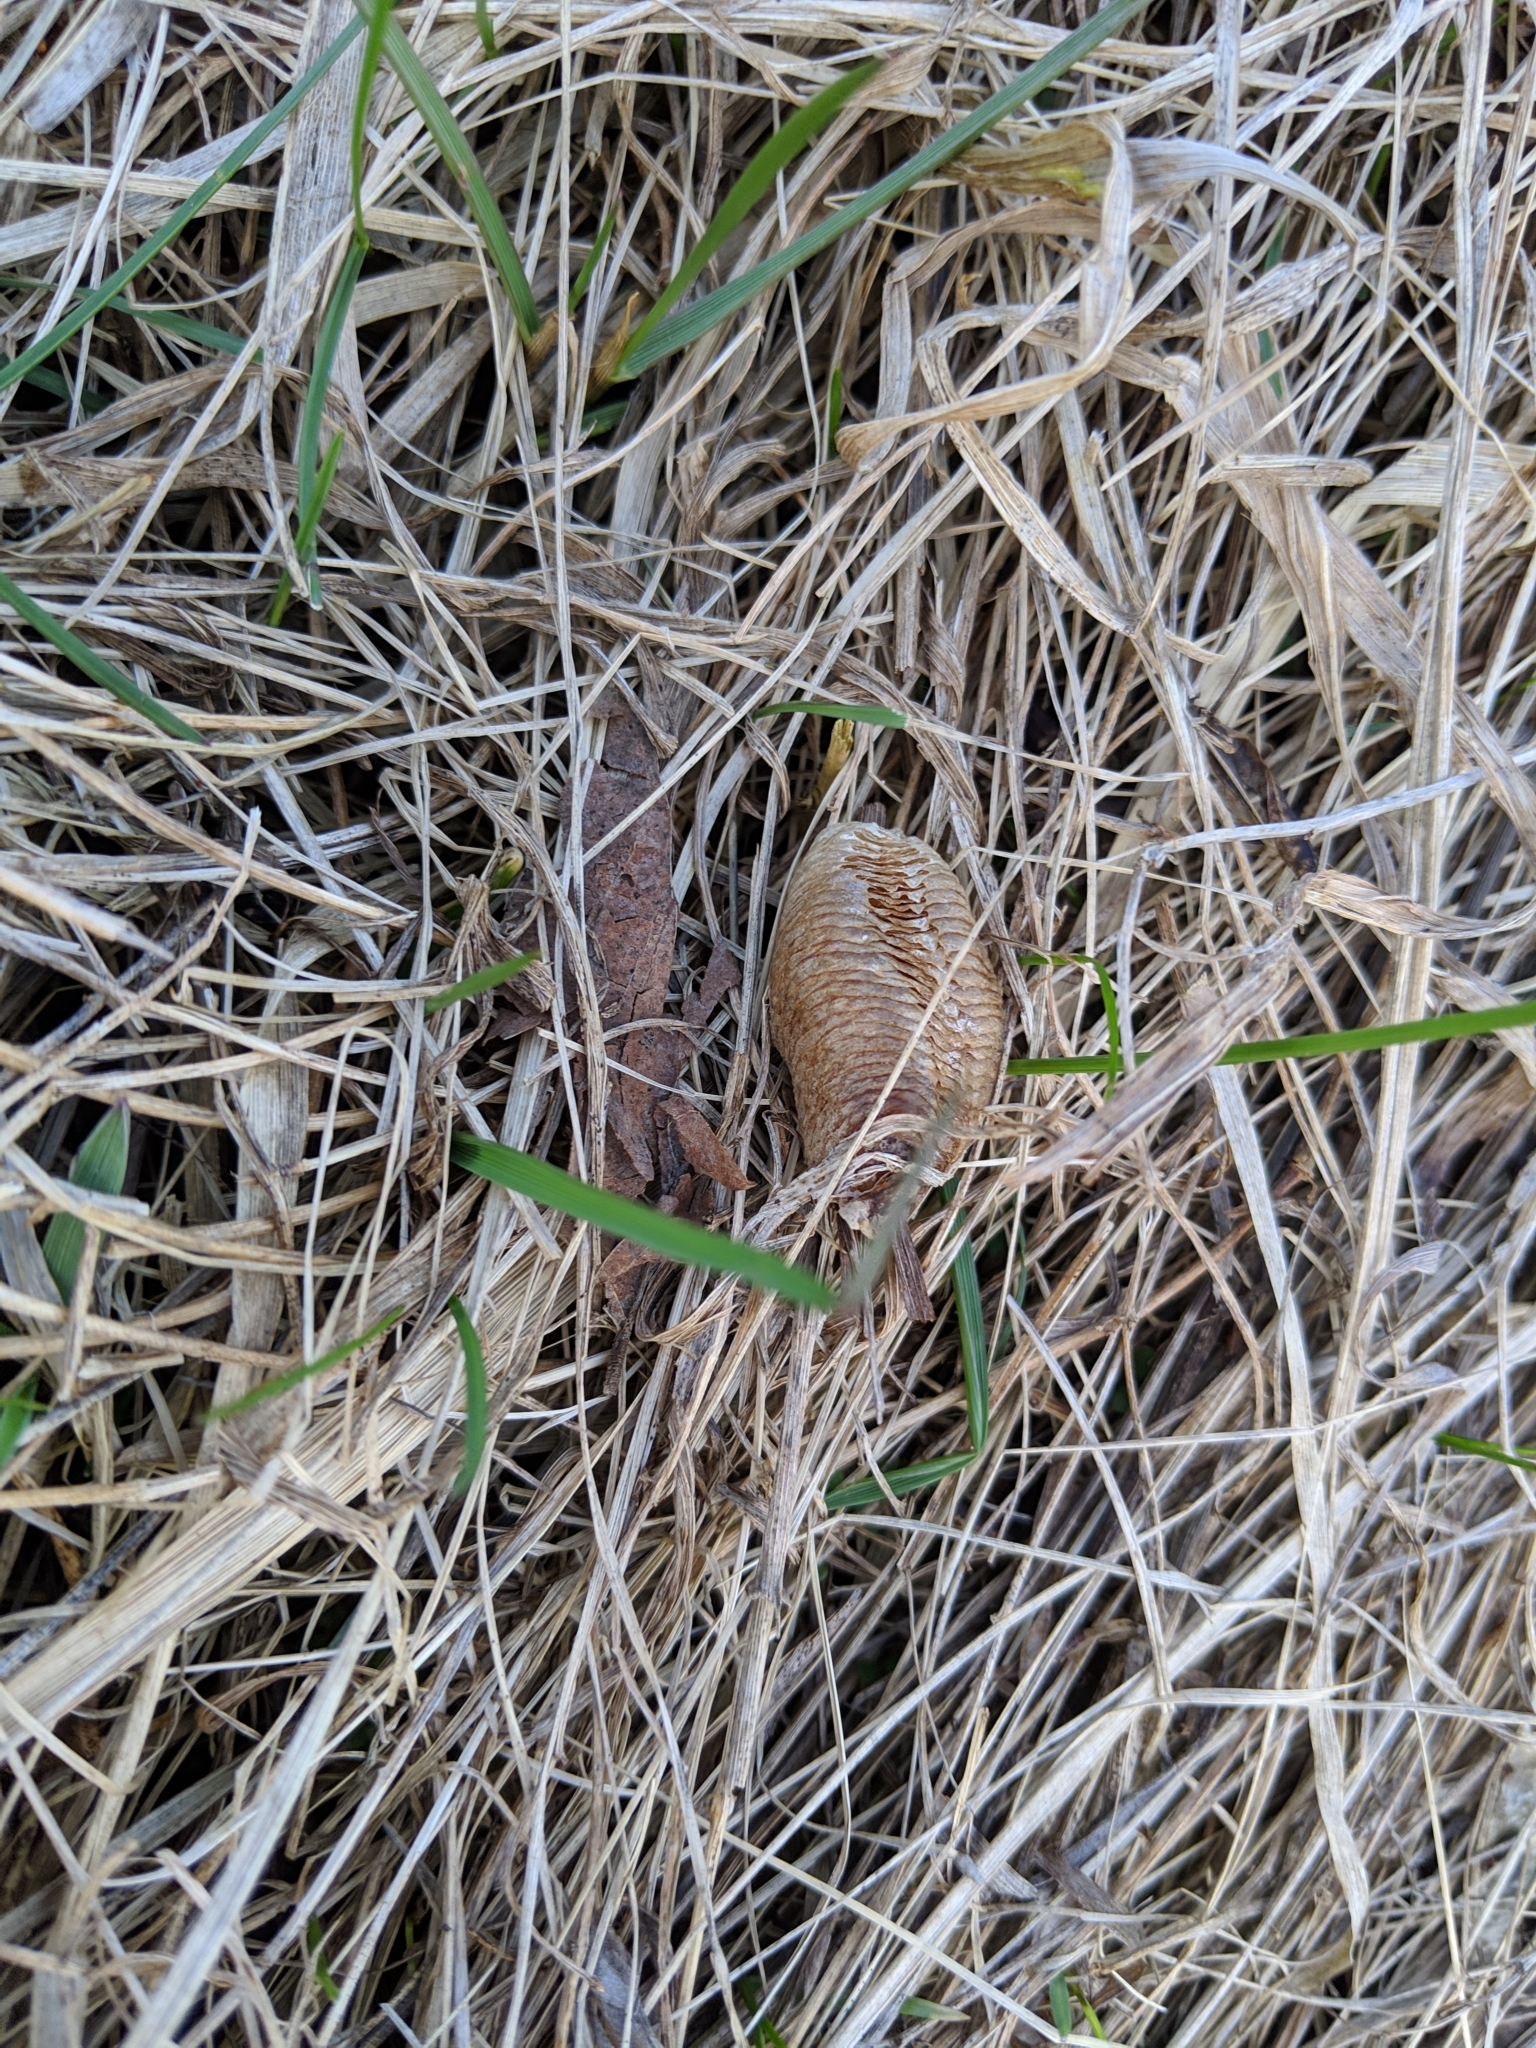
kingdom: Animalia
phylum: Arthropoda
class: Insecta
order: Mantodea
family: Mantidae
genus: Mantis
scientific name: Mantis religiosa
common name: Praying mantis
